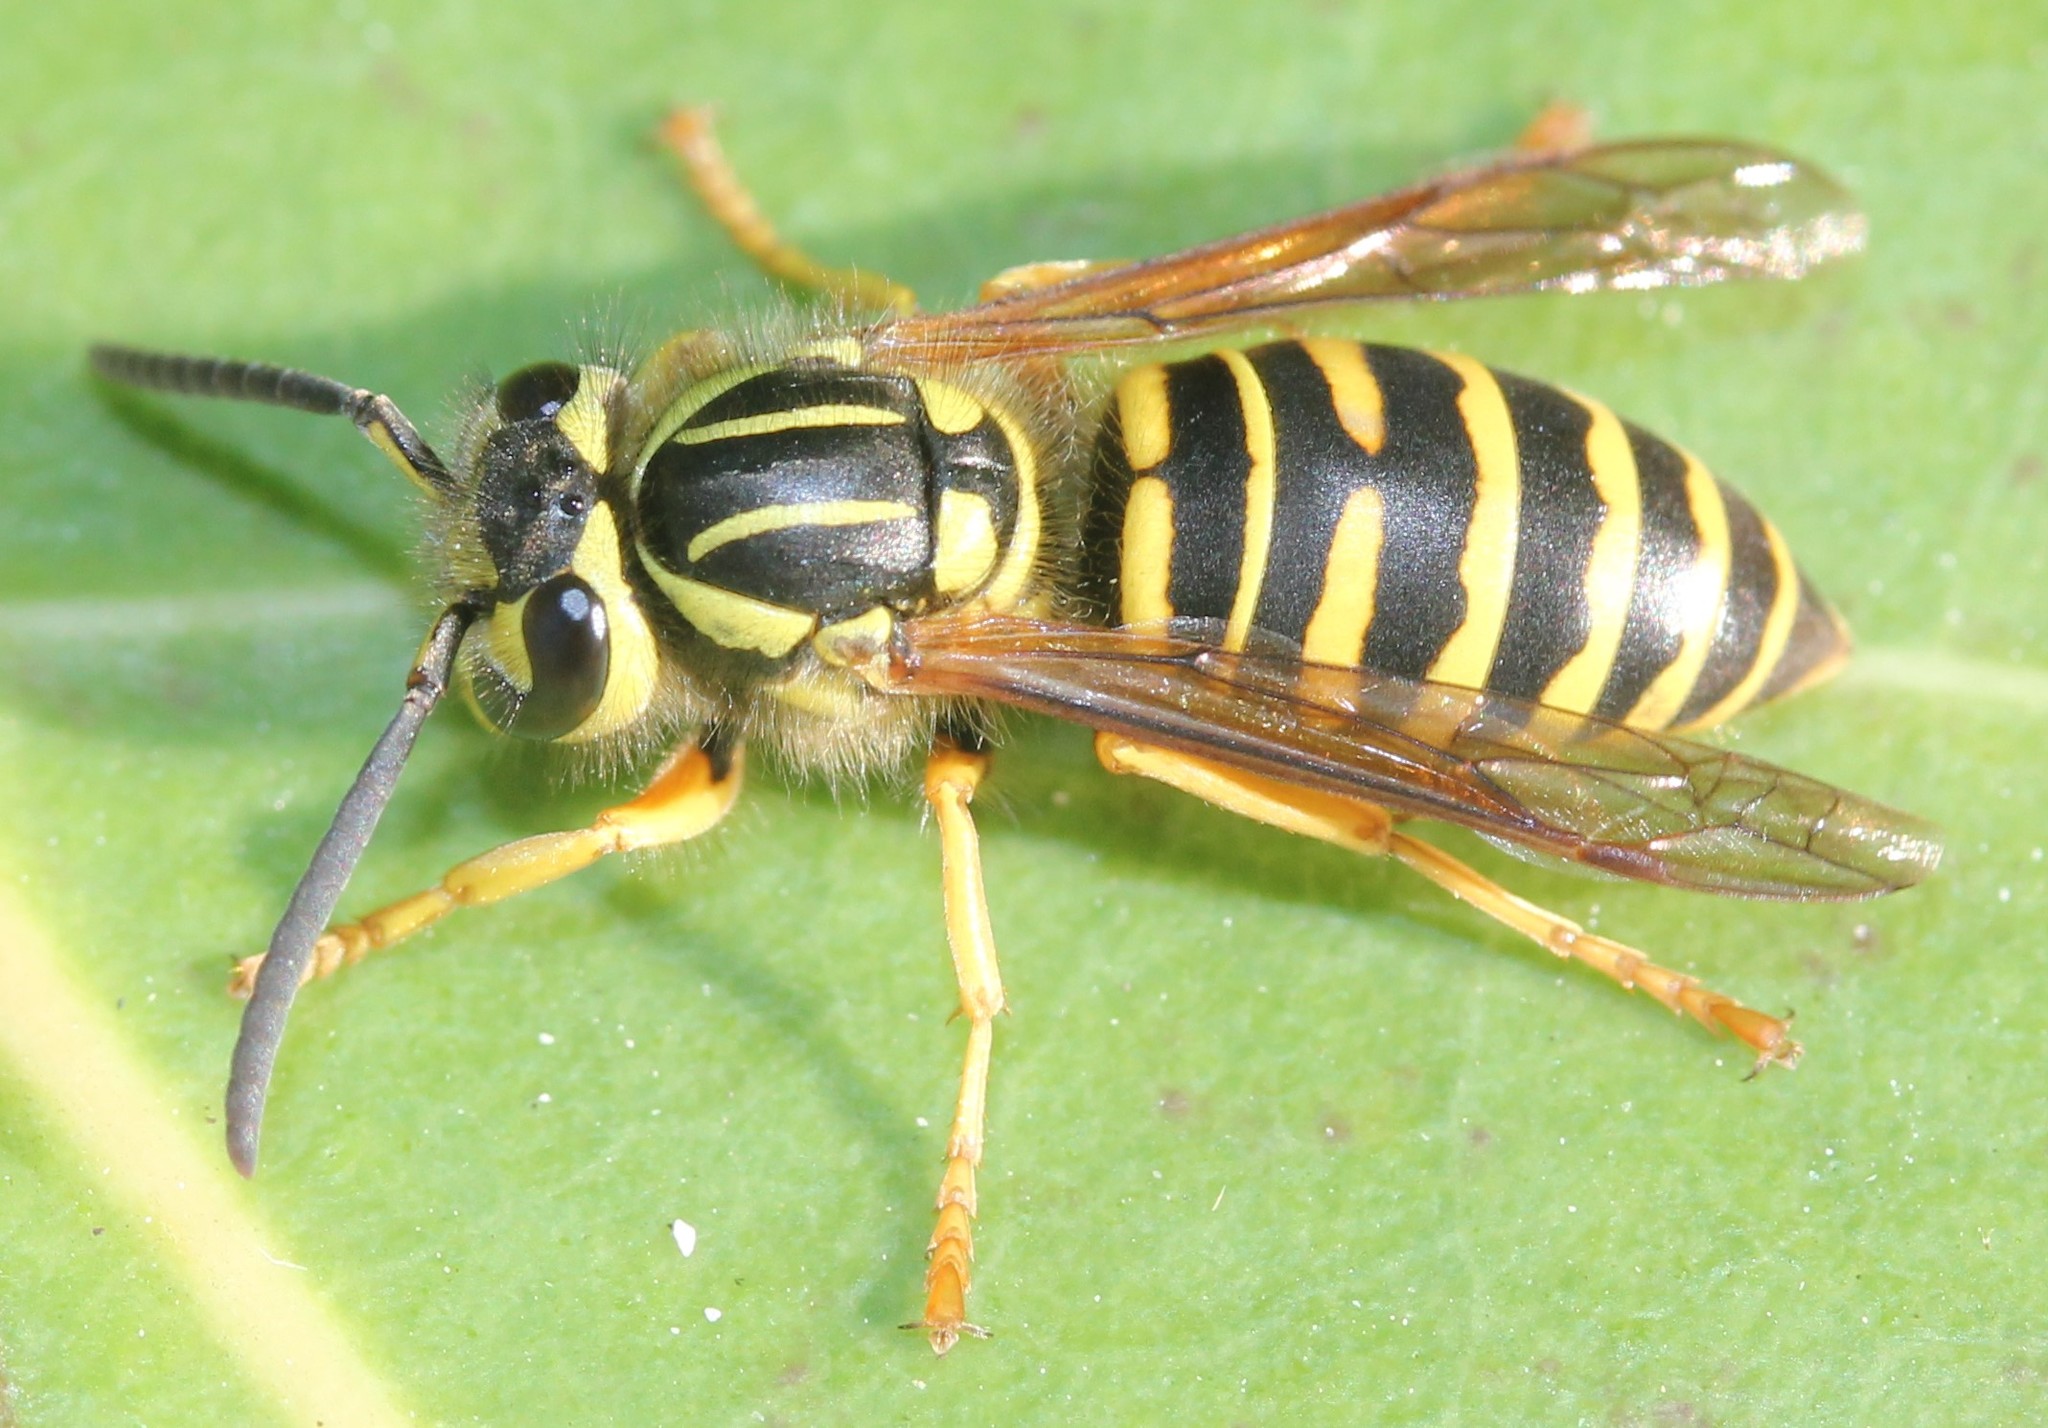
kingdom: Animalia
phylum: Arthropoda
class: Insecta
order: Hymenoptera
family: Vespidae
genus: Vespula
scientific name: Vespula squamosa
